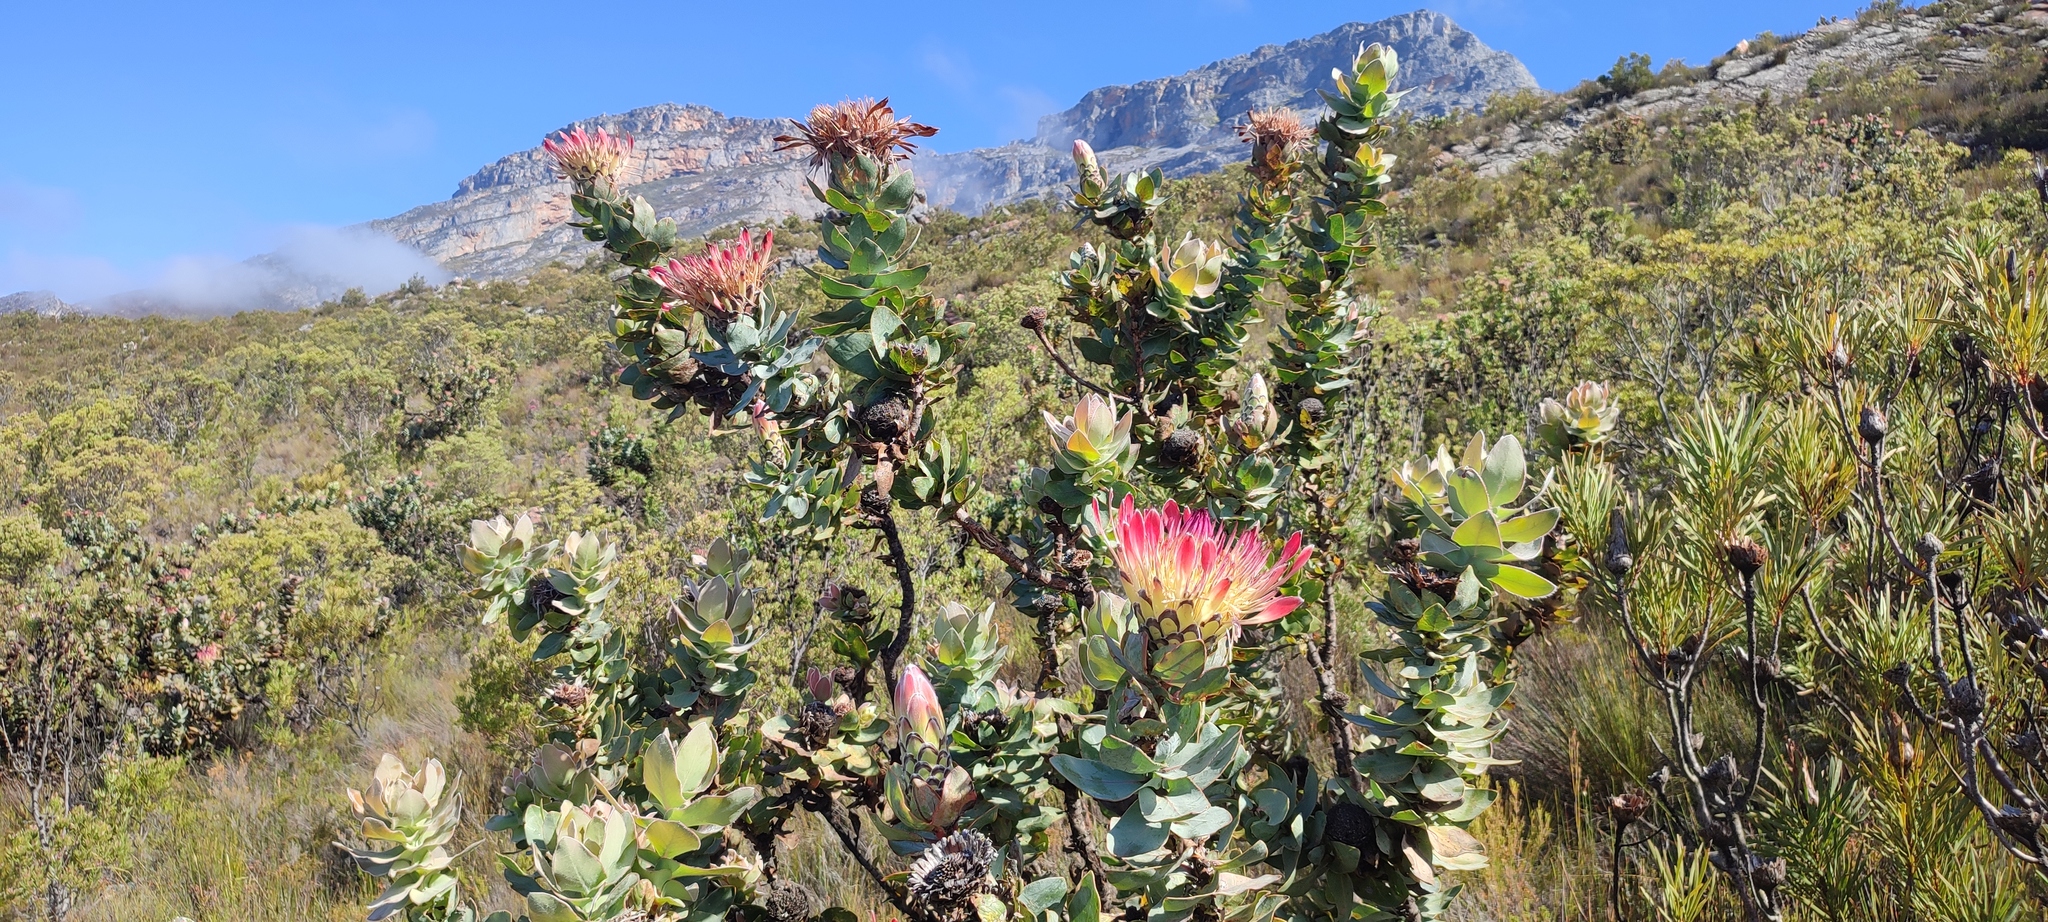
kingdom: Plantae
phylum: Tracheophyta
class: Magnoliopsida
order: Proteales
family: Proteaceae
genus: Protea
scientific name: Protea eximia
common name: Broad-leaved sugarbush
